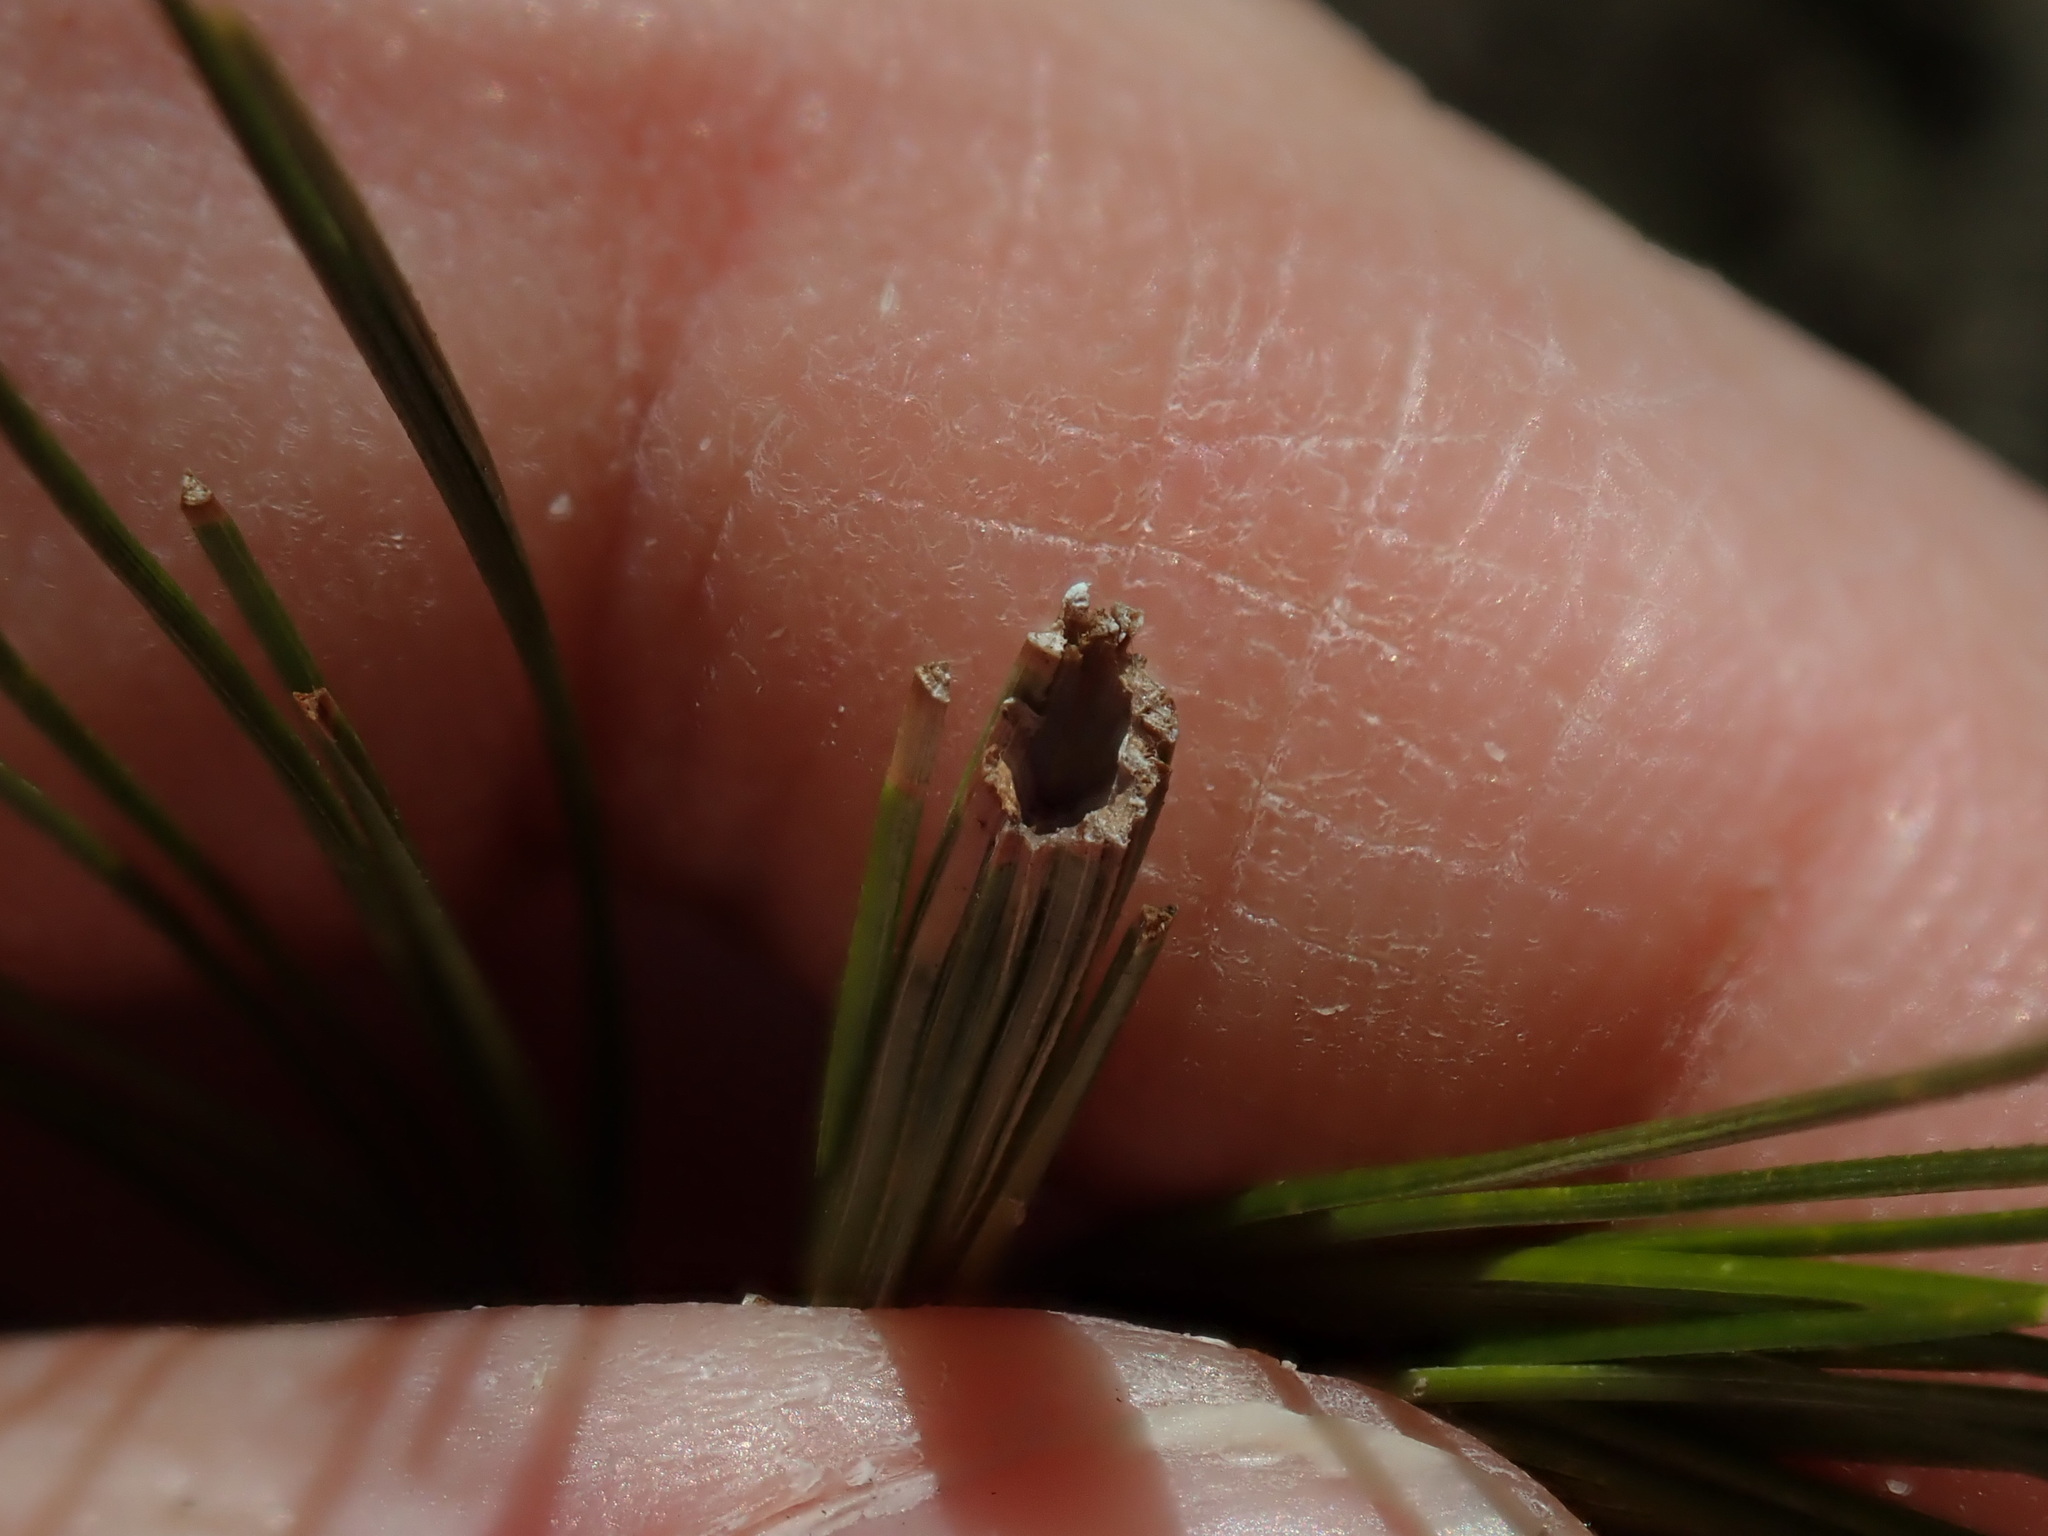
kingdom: Animalia
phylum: Arthropoda
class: Insecta
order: Lepidoptera
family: Tortricidae
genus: Argyrotaenia
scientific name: Argyrotaenia pinatubana
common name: Pine tube moth
